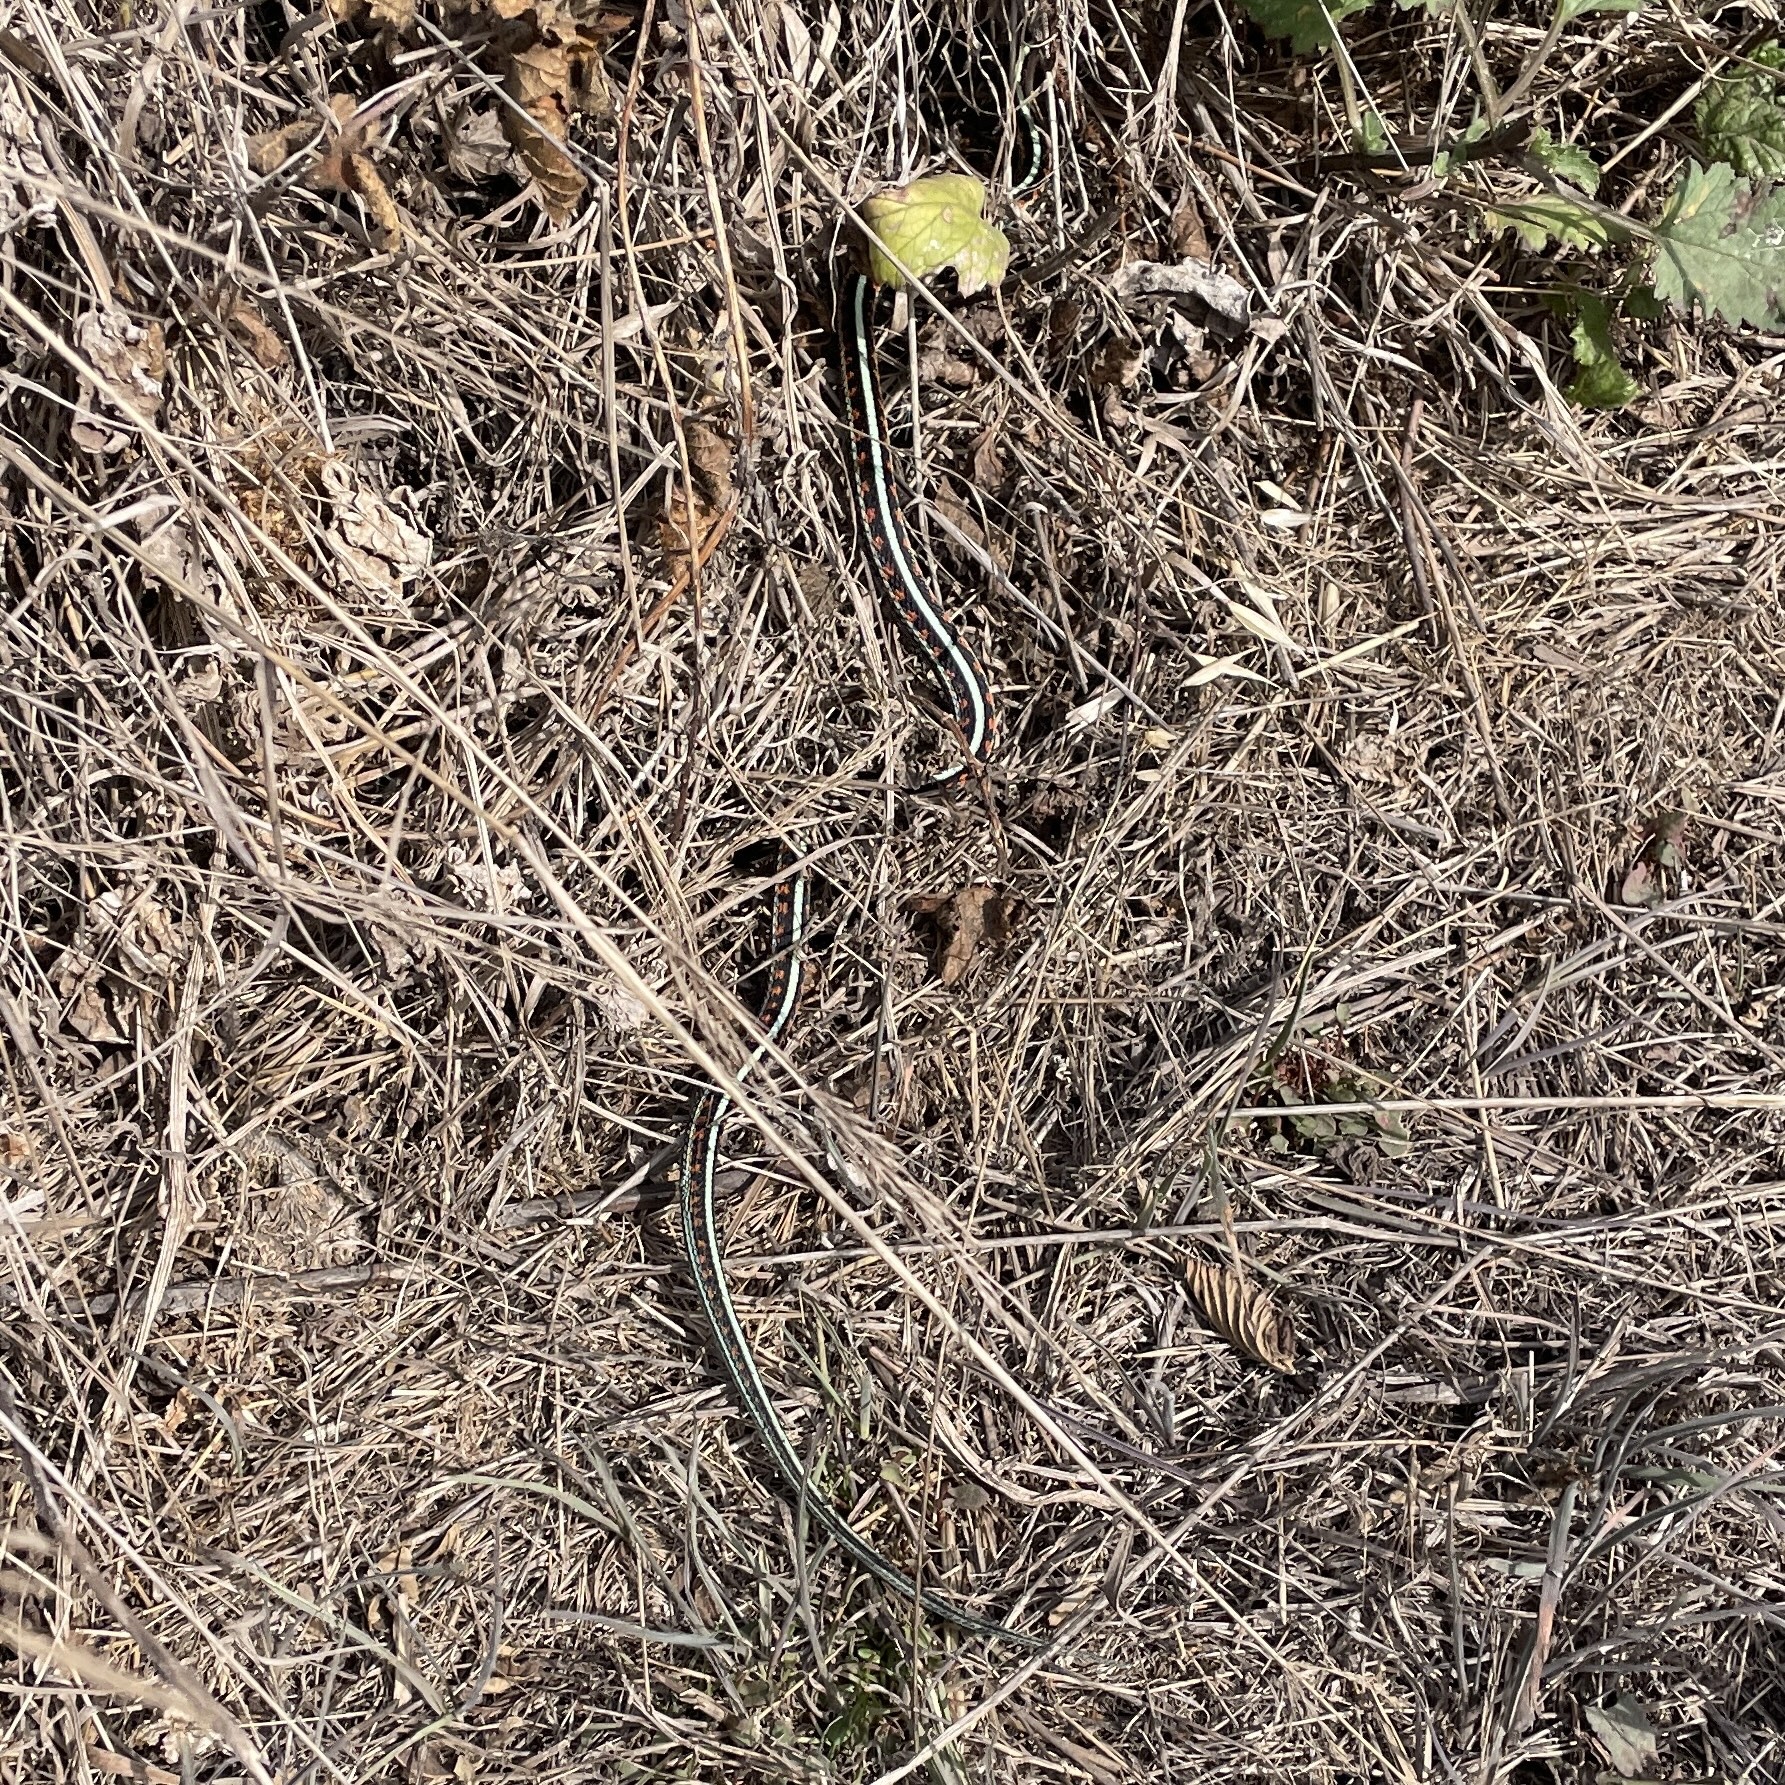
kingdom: Animalia
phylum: Chordata
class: Squamata
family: Colubridae
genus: Thamnophis
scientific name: Thamnophis sirtalis
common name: Common garter snake
